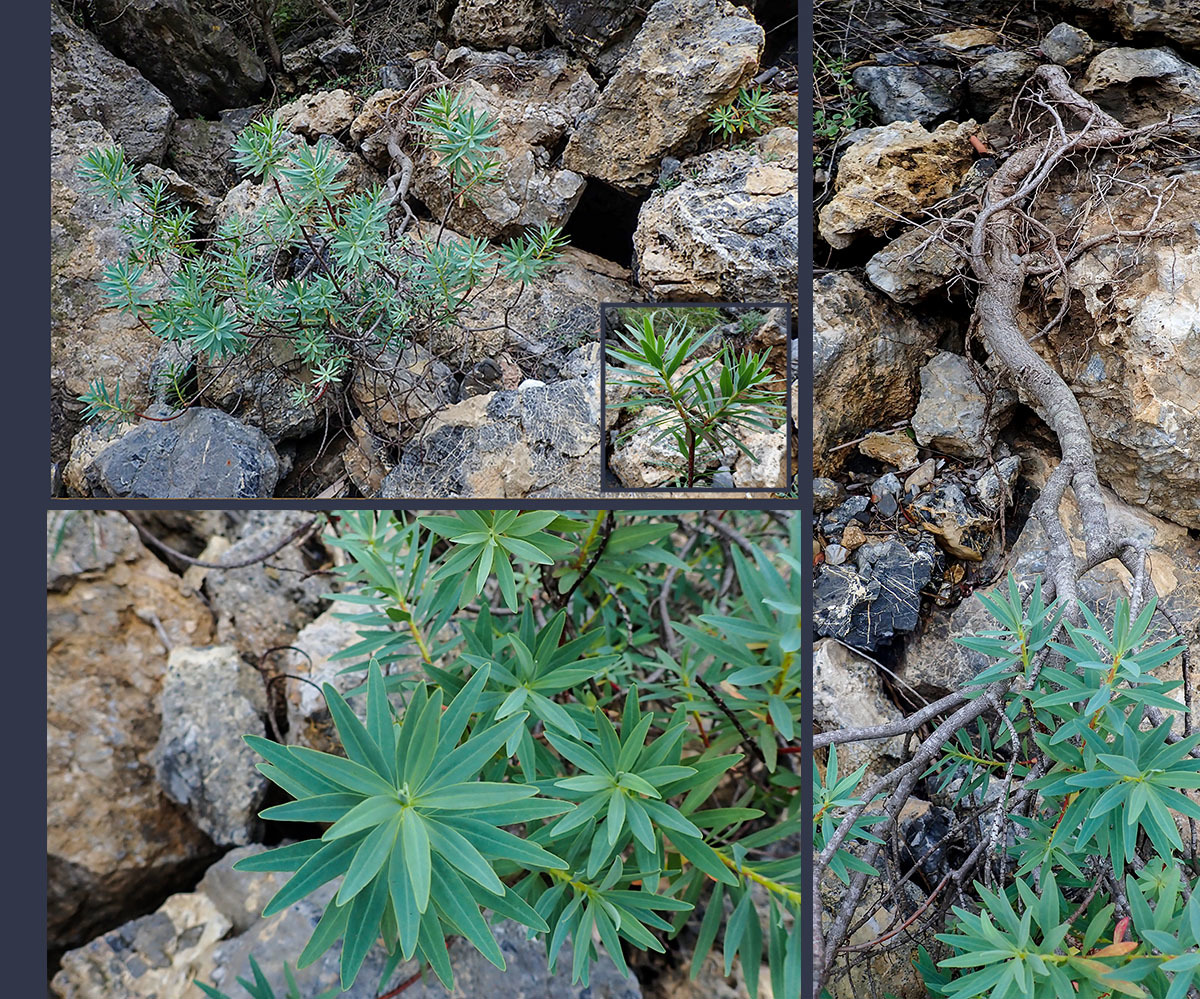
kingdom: Plantae
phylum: Tracheophyta
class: Magnoliopsida
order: Malpighiales
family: Euphorbiaceae
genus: Euphorbia
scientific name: Euphorbia dendroides
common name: Tree spurge
